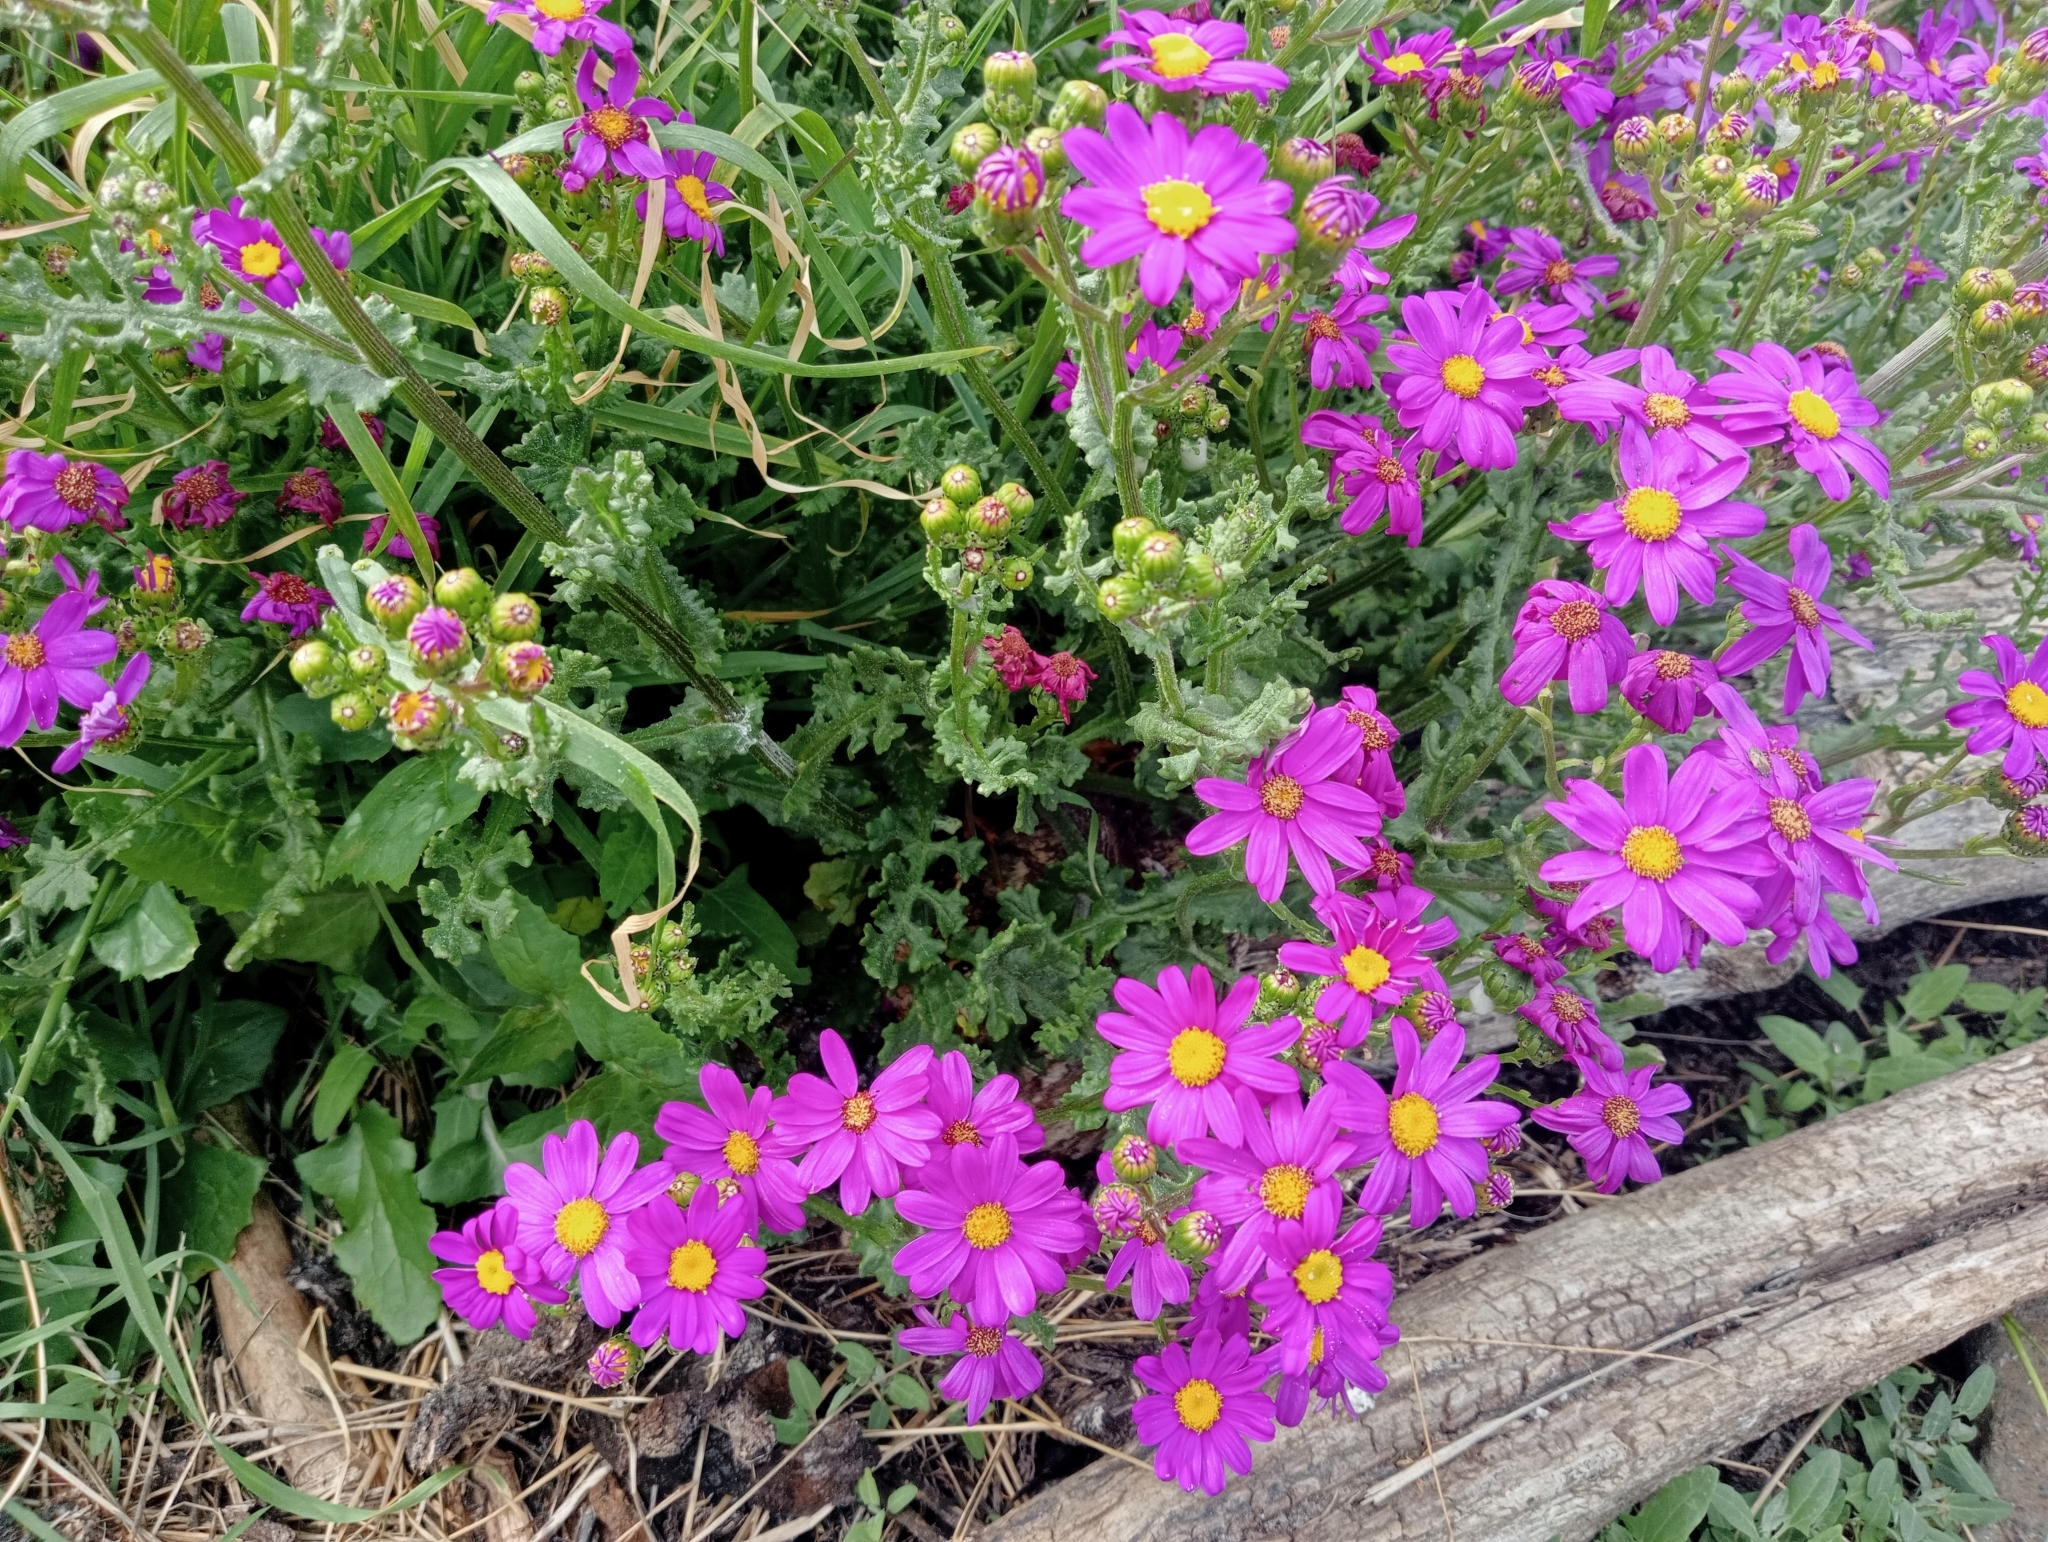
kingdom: Plantae
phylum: Tracheophyta
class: Magnoliopsida
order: Asterales
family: Asteraceae
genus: Senecio
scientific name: Senecio elegans
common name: Purple groundsel
